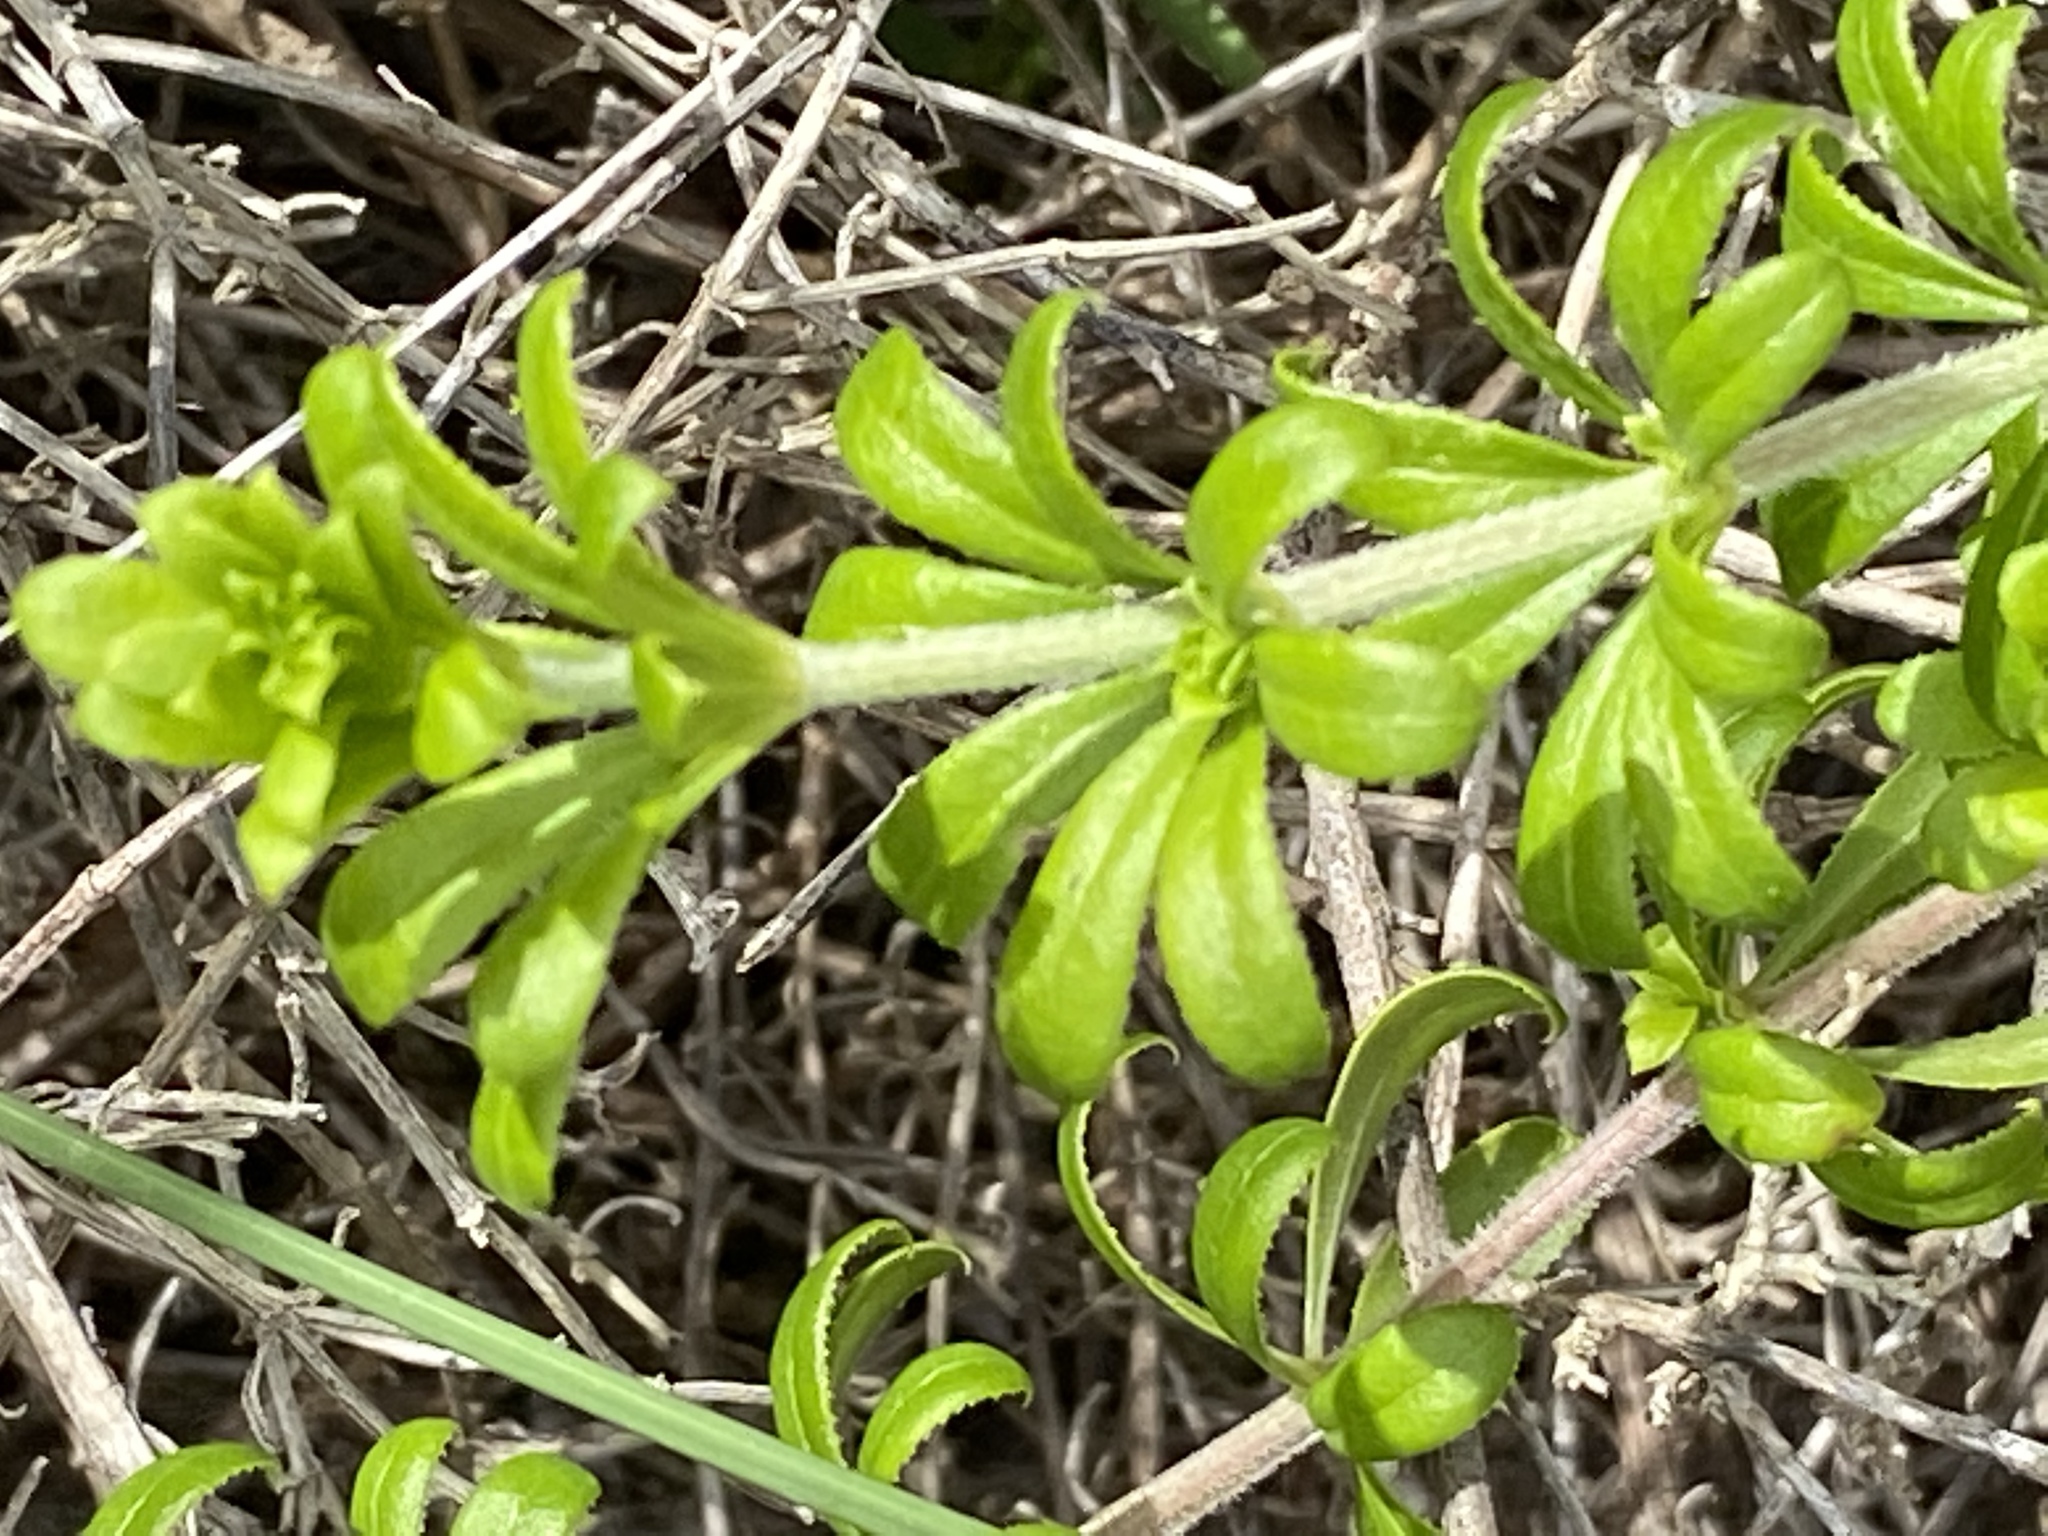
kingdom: Plantae
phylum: Tracheophyta
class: Magnoliopsida
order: Gentianales
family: Rubiaceae
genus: Galium
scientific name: Galium tomentosum
